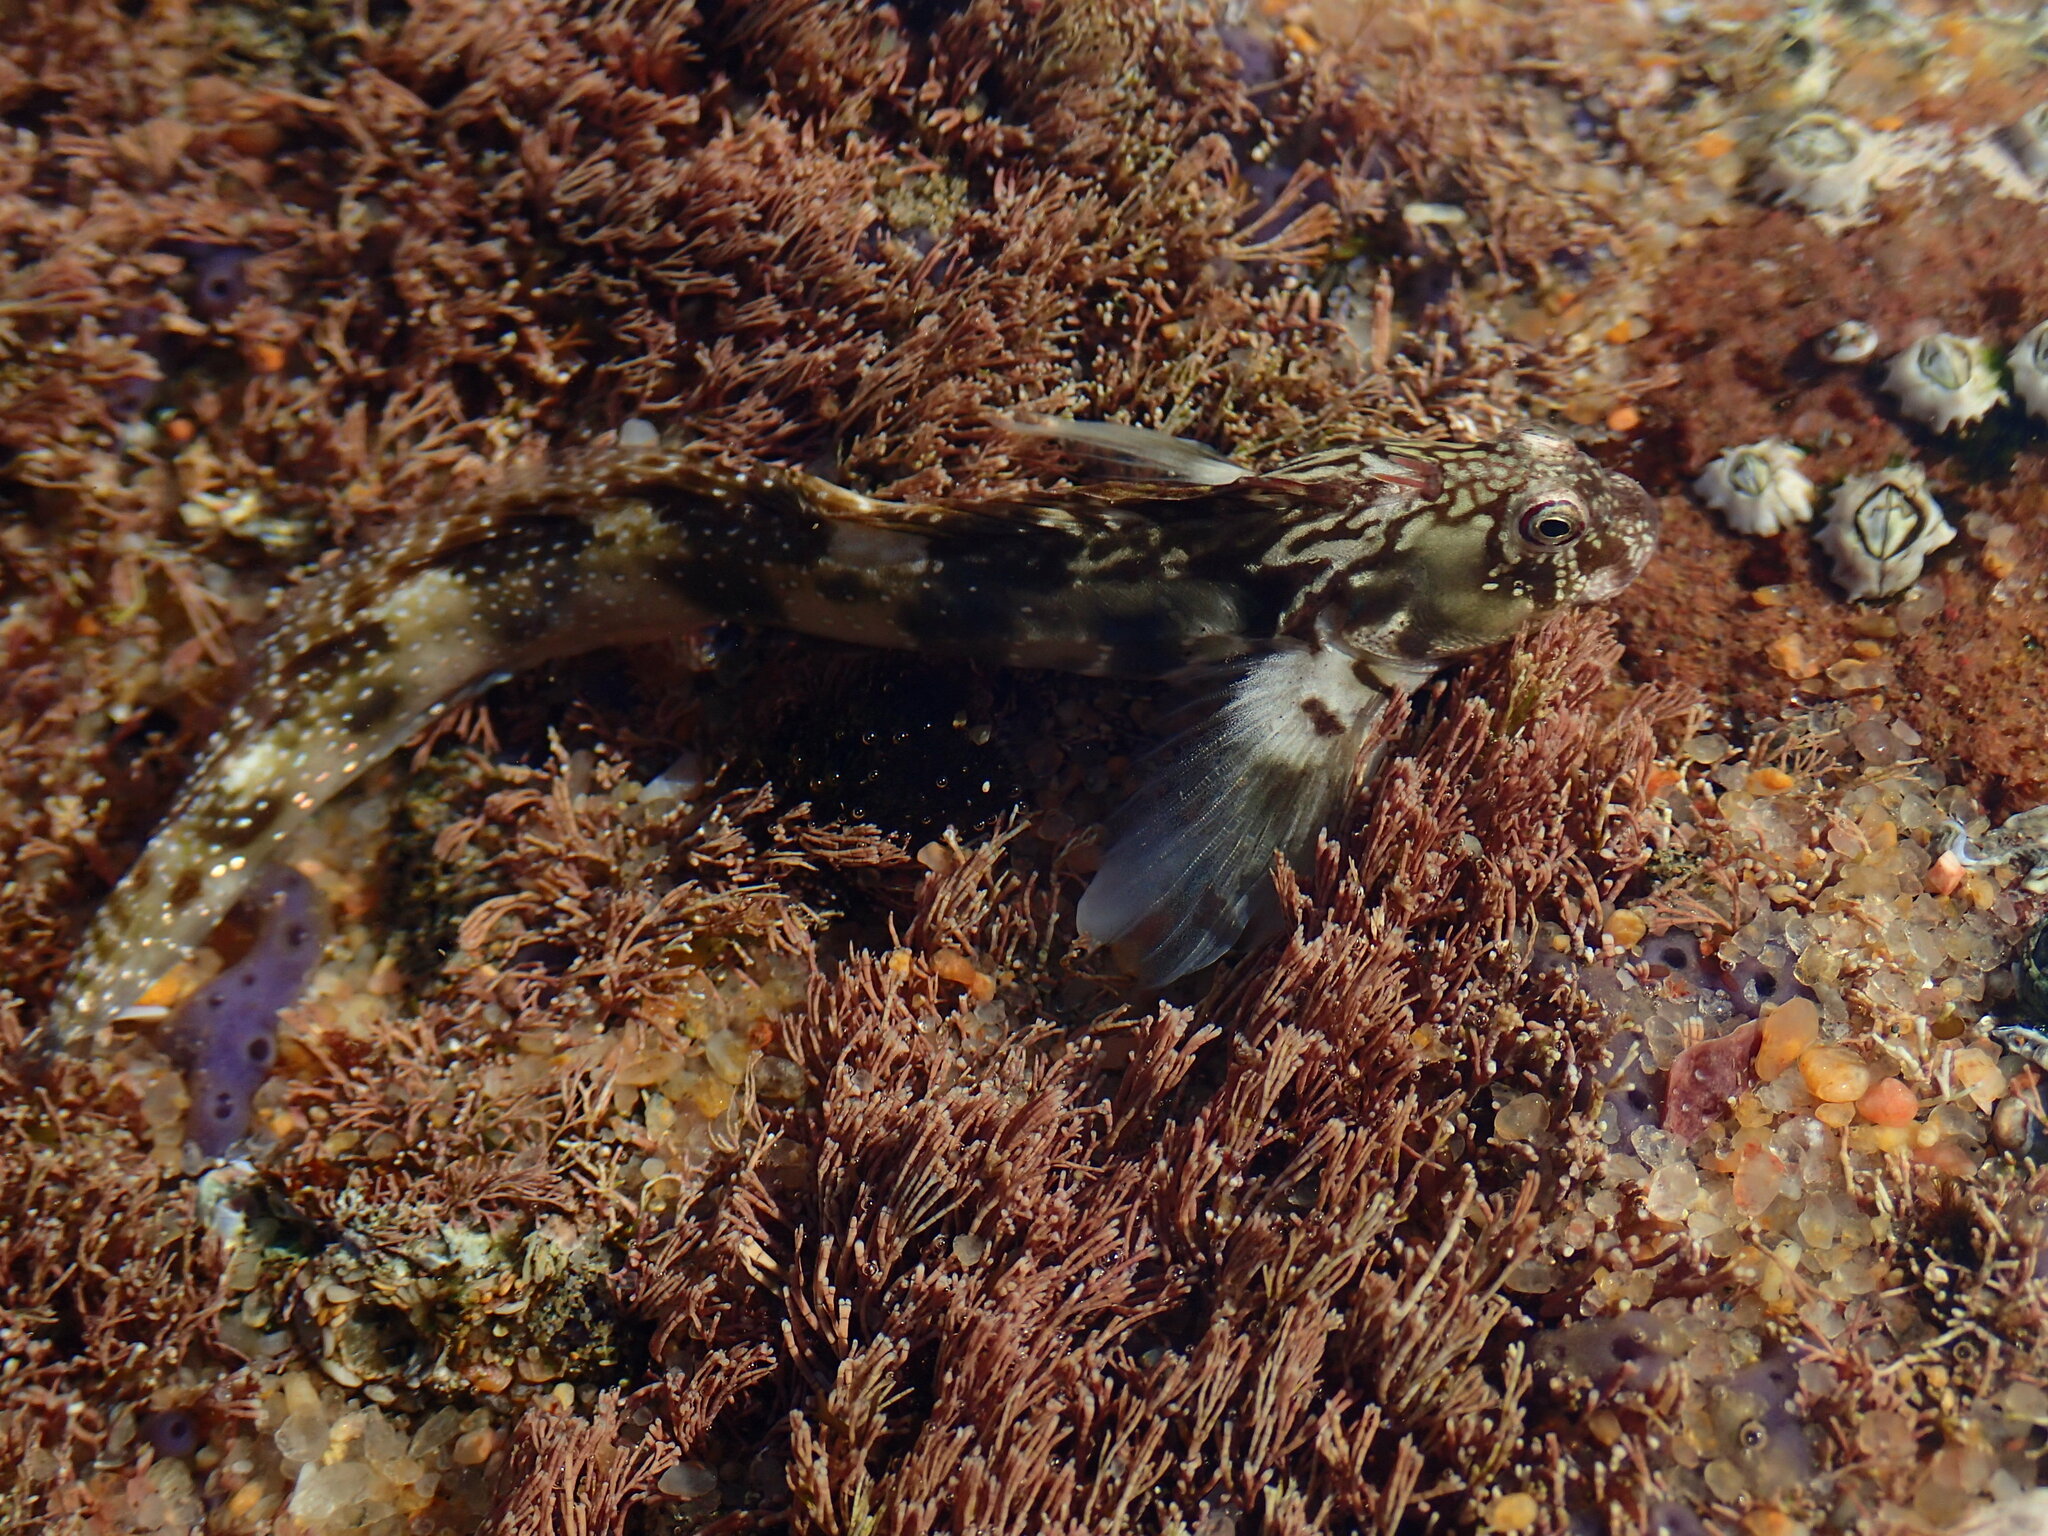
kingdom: Animalia
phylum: Chordata
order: Perciformes
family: Blenniidae
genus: Antennablennius
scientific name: Antennablennius bifilum
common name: Horned rockskipper
